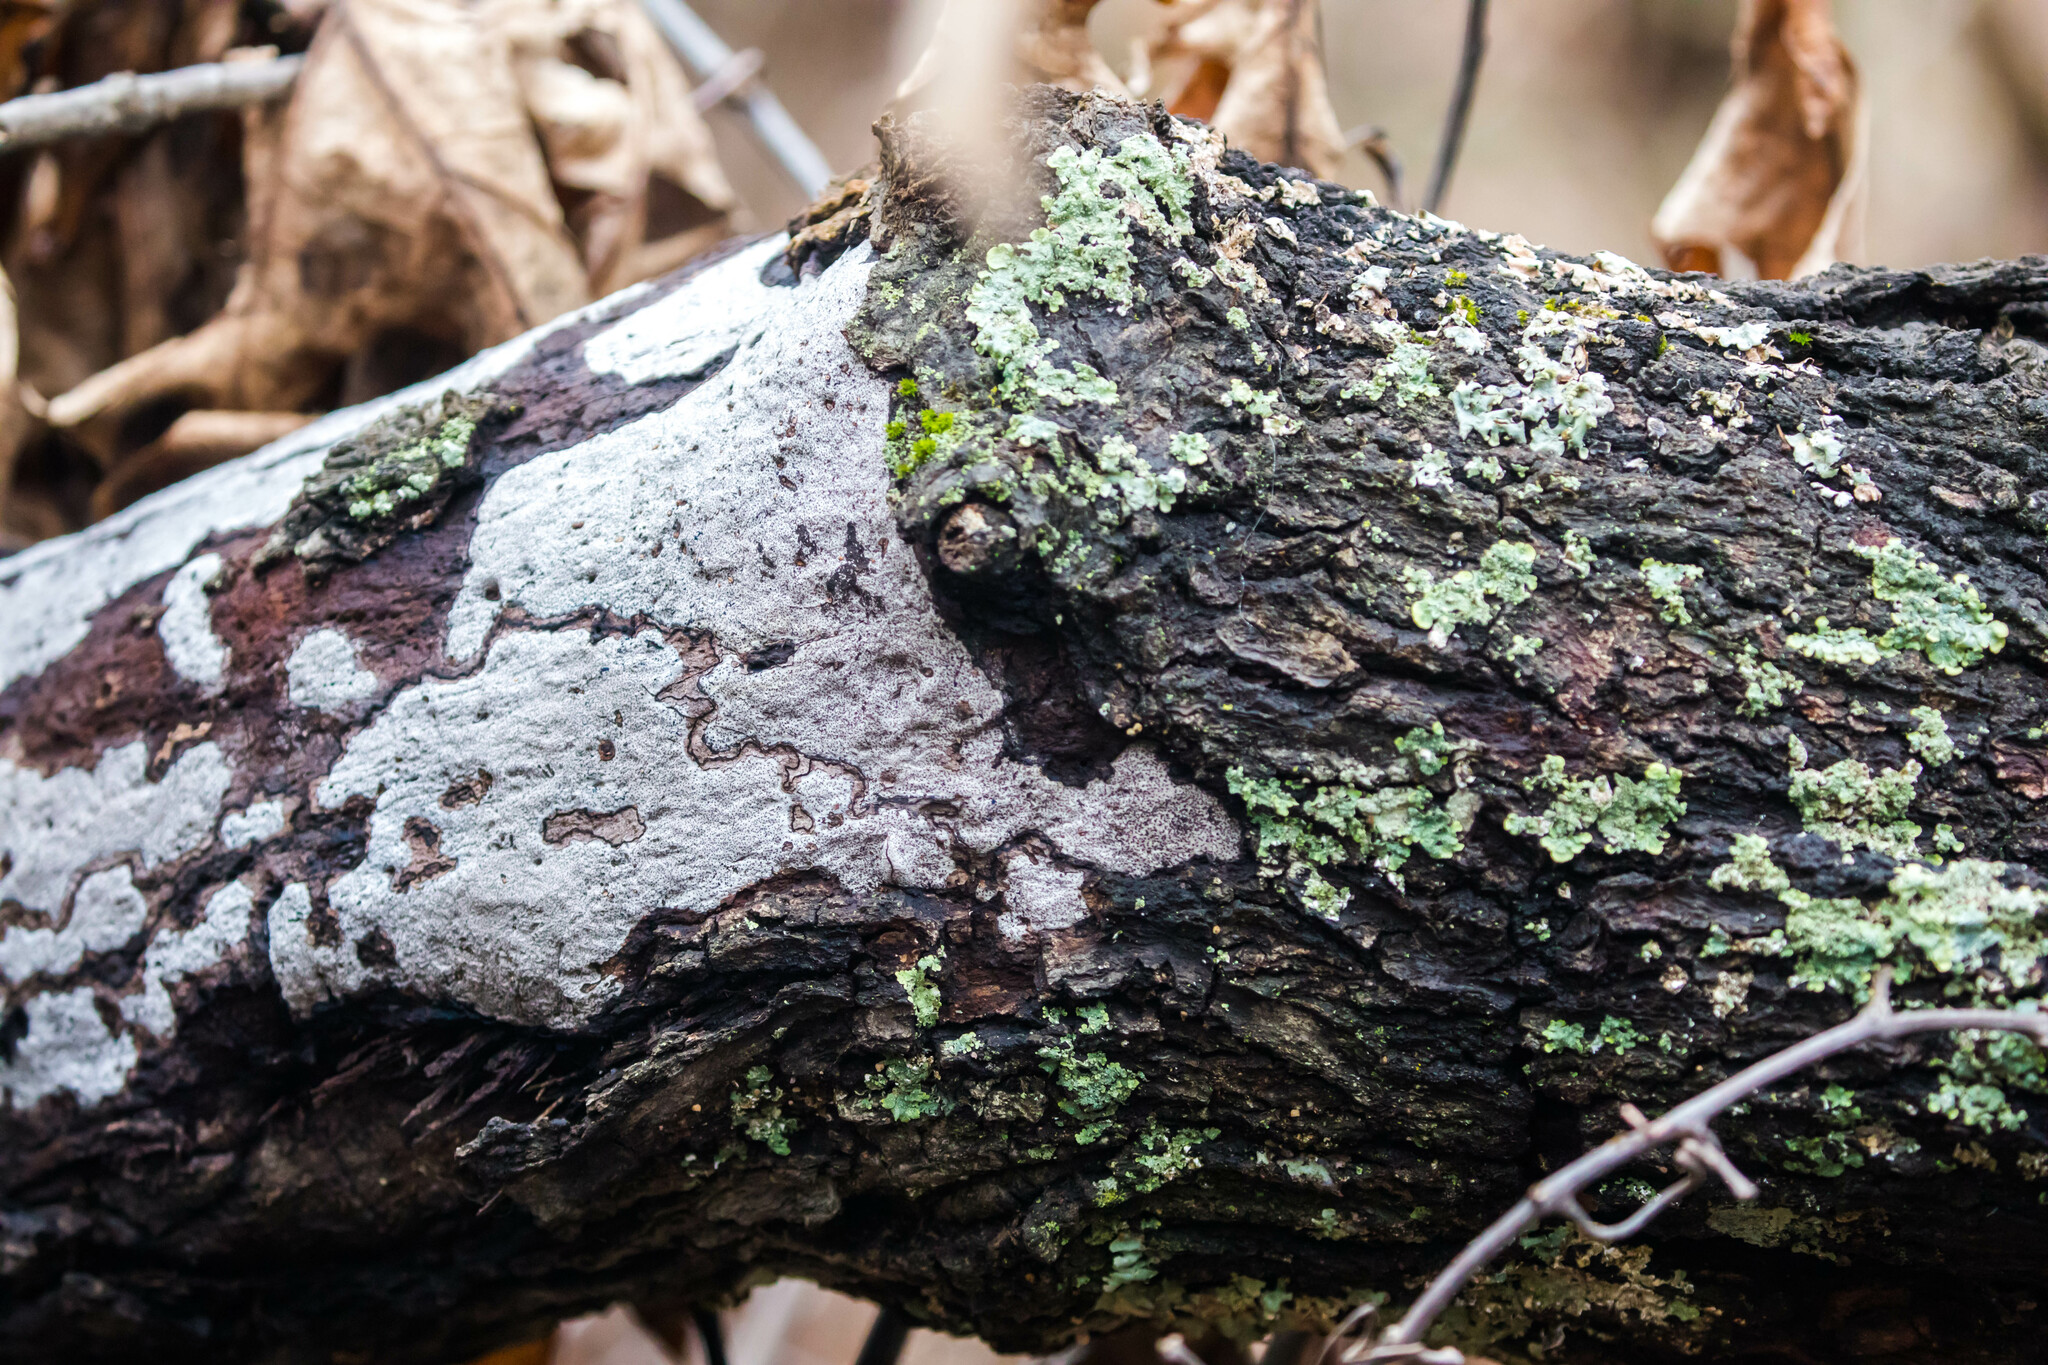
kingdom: Fungi
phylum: Ascomycota
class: Sordariomycetes
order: Xylariales
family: Graphostromataceae
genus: Biscogniauxia
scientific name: Biscogniauxia atropunctata
